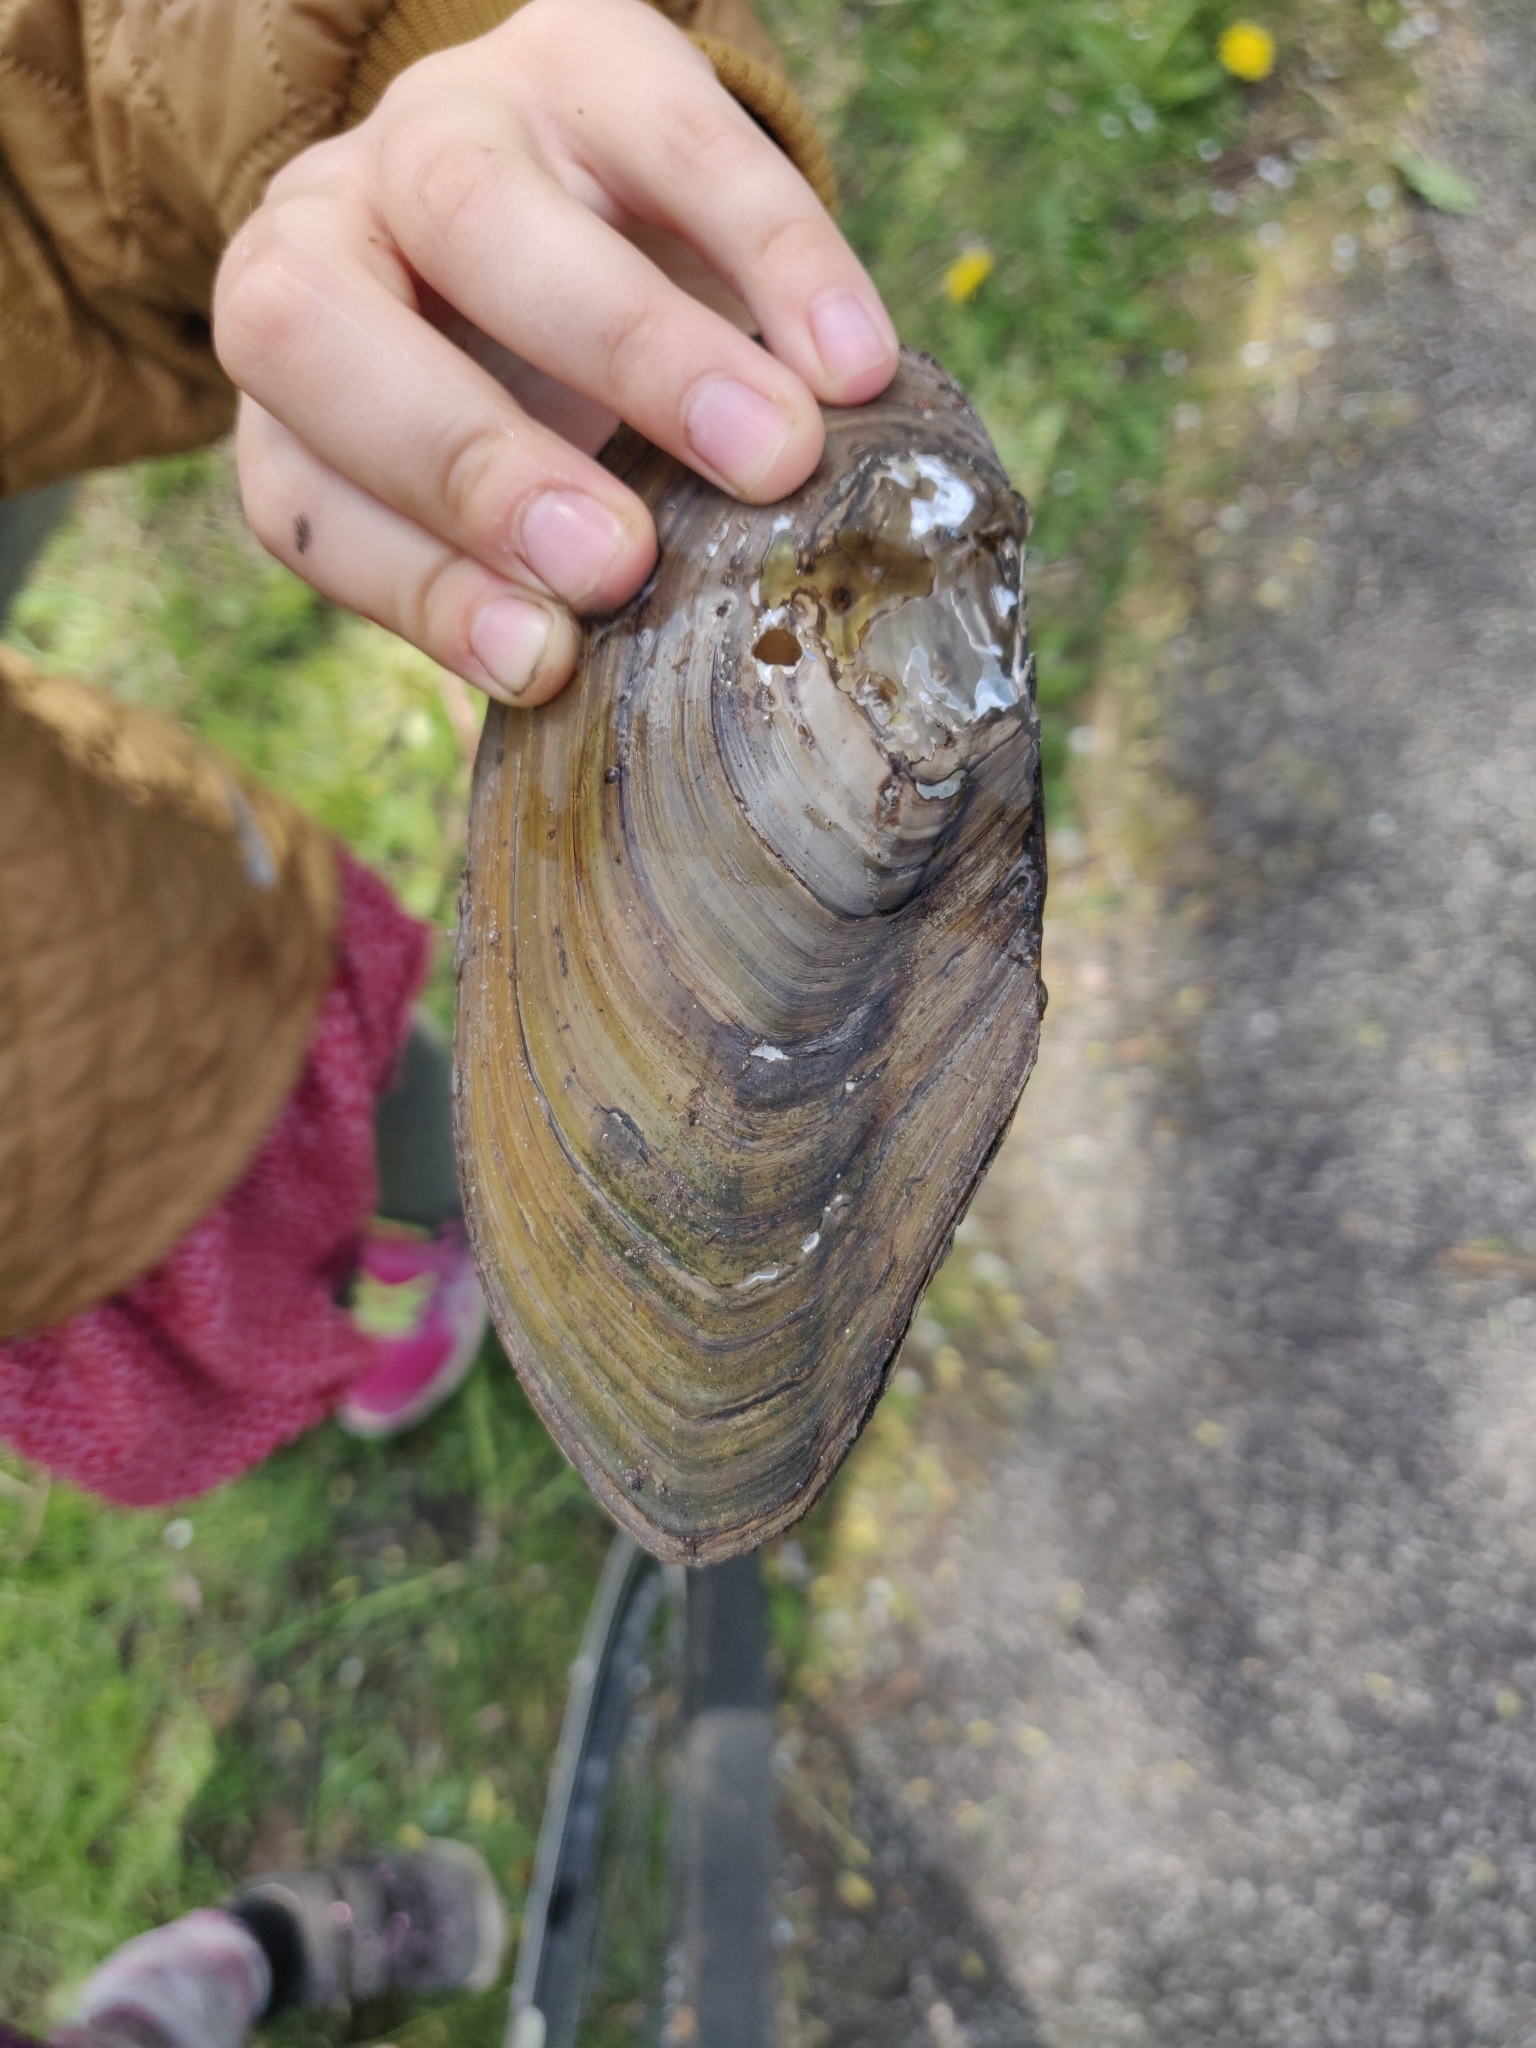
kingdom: Animalia
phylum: Mollusca
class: Bivalvia
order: Unionida
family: Unionidae
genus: Anodonta
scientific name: Anodonta cygnea
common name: Swan mussel
